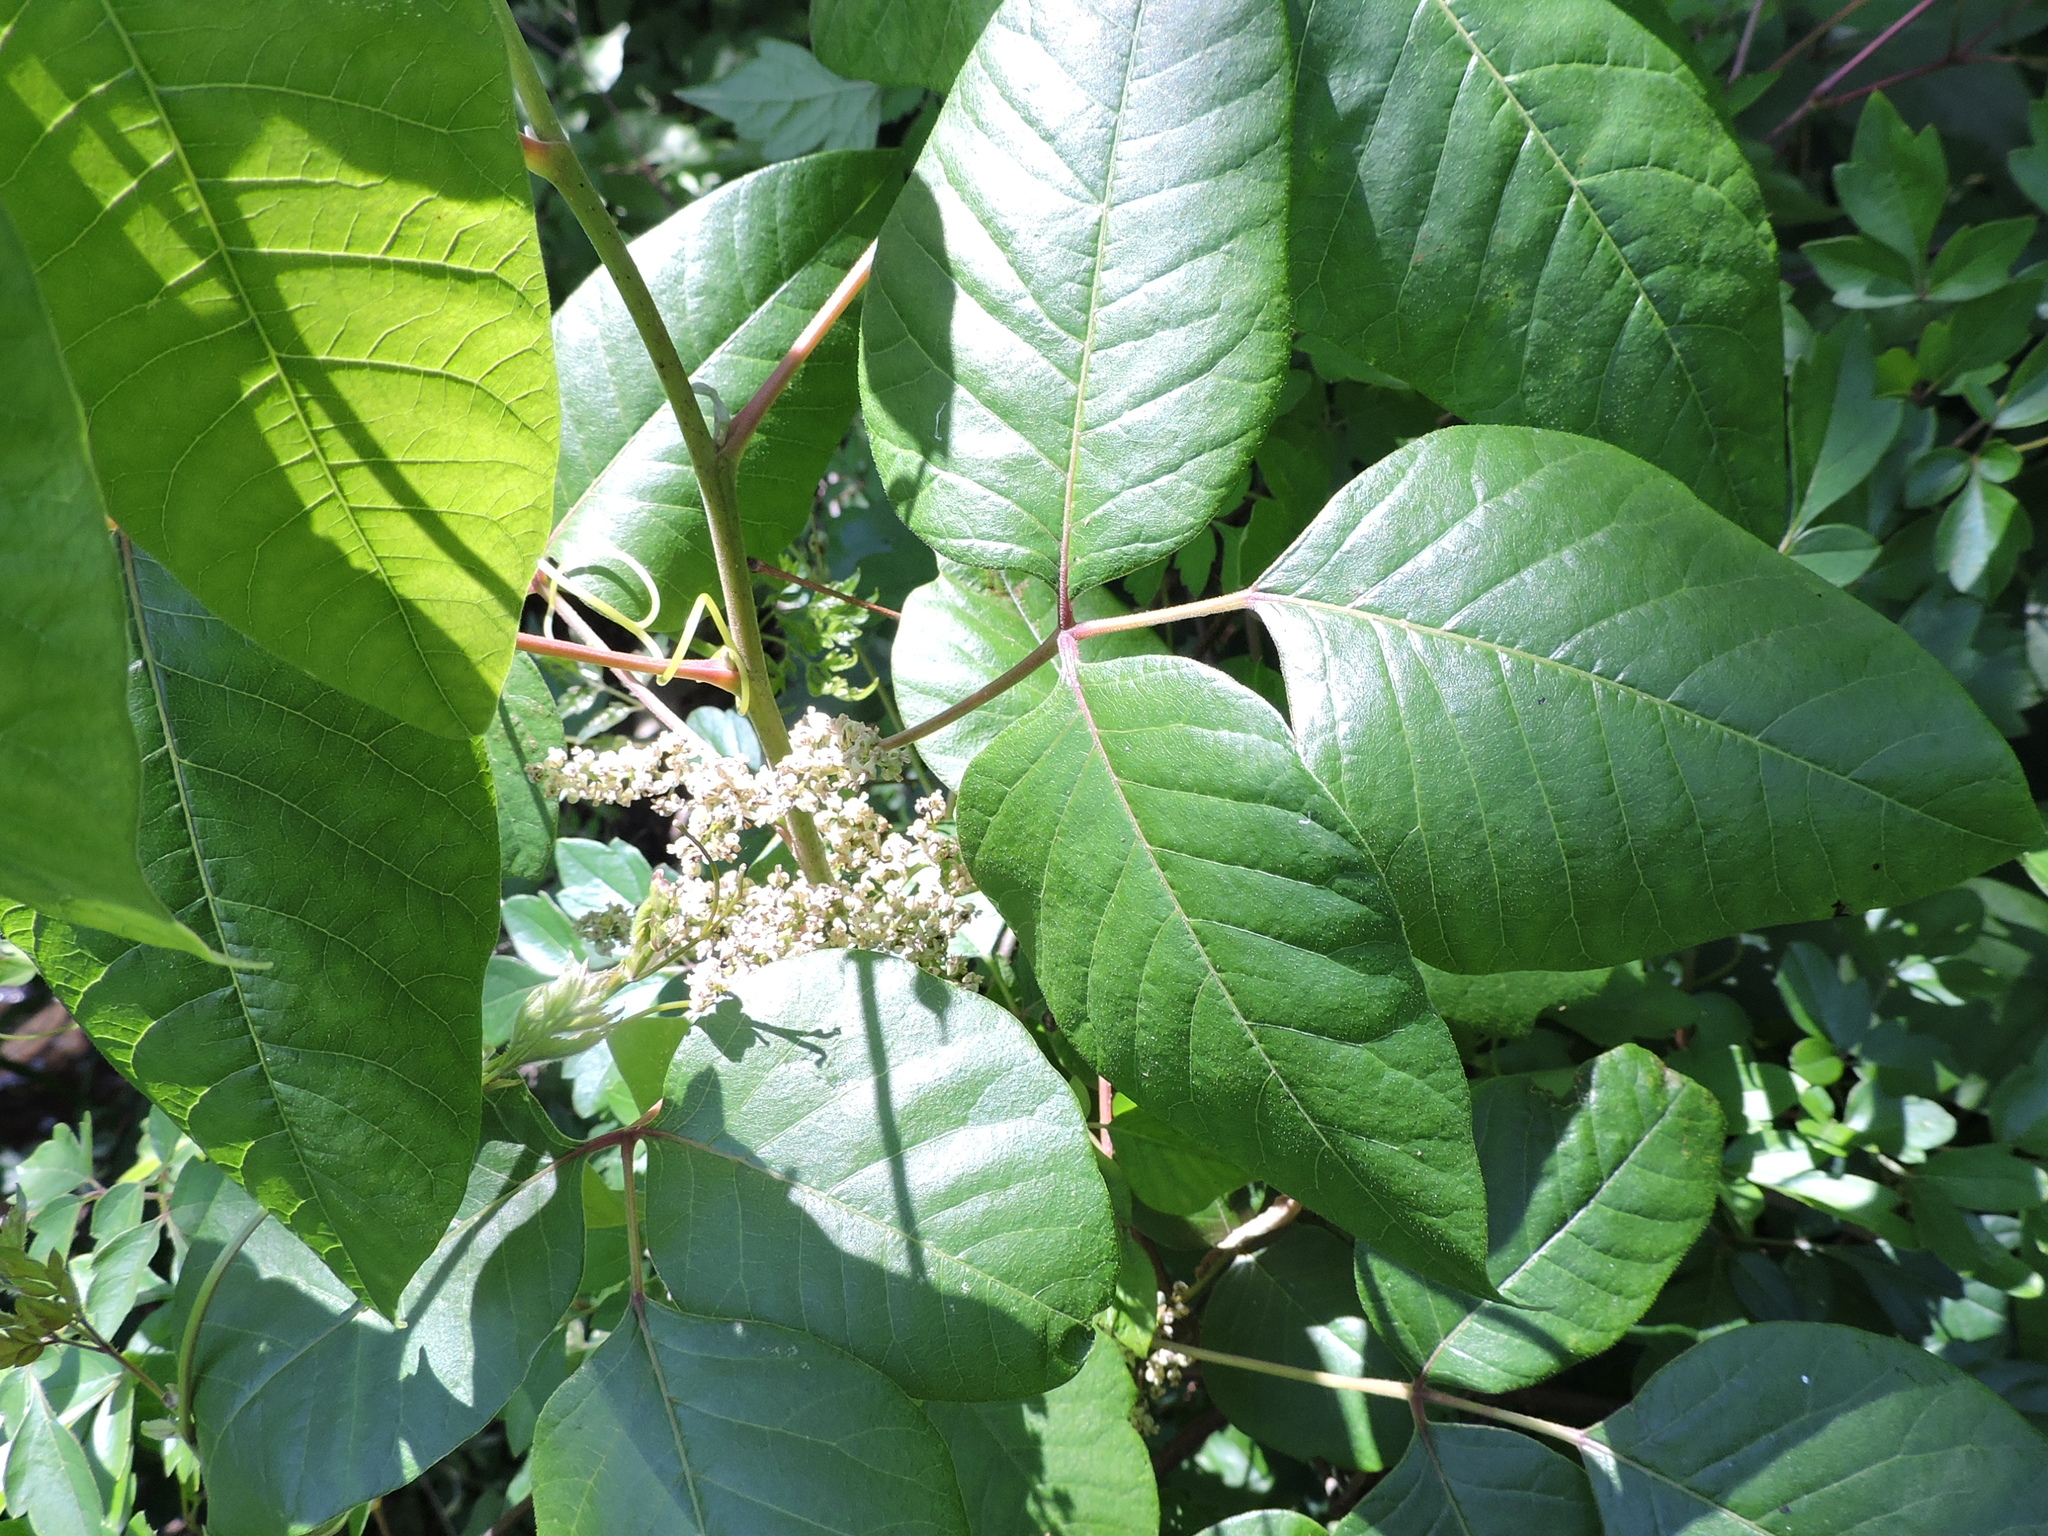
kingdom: Plantae
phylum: Tracheophyta
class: Magnoliopsida
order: Sapindales
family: Anacardiaceae
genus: Toxicodendron
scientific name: Toxicodendron radicans
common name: Poison ivy
